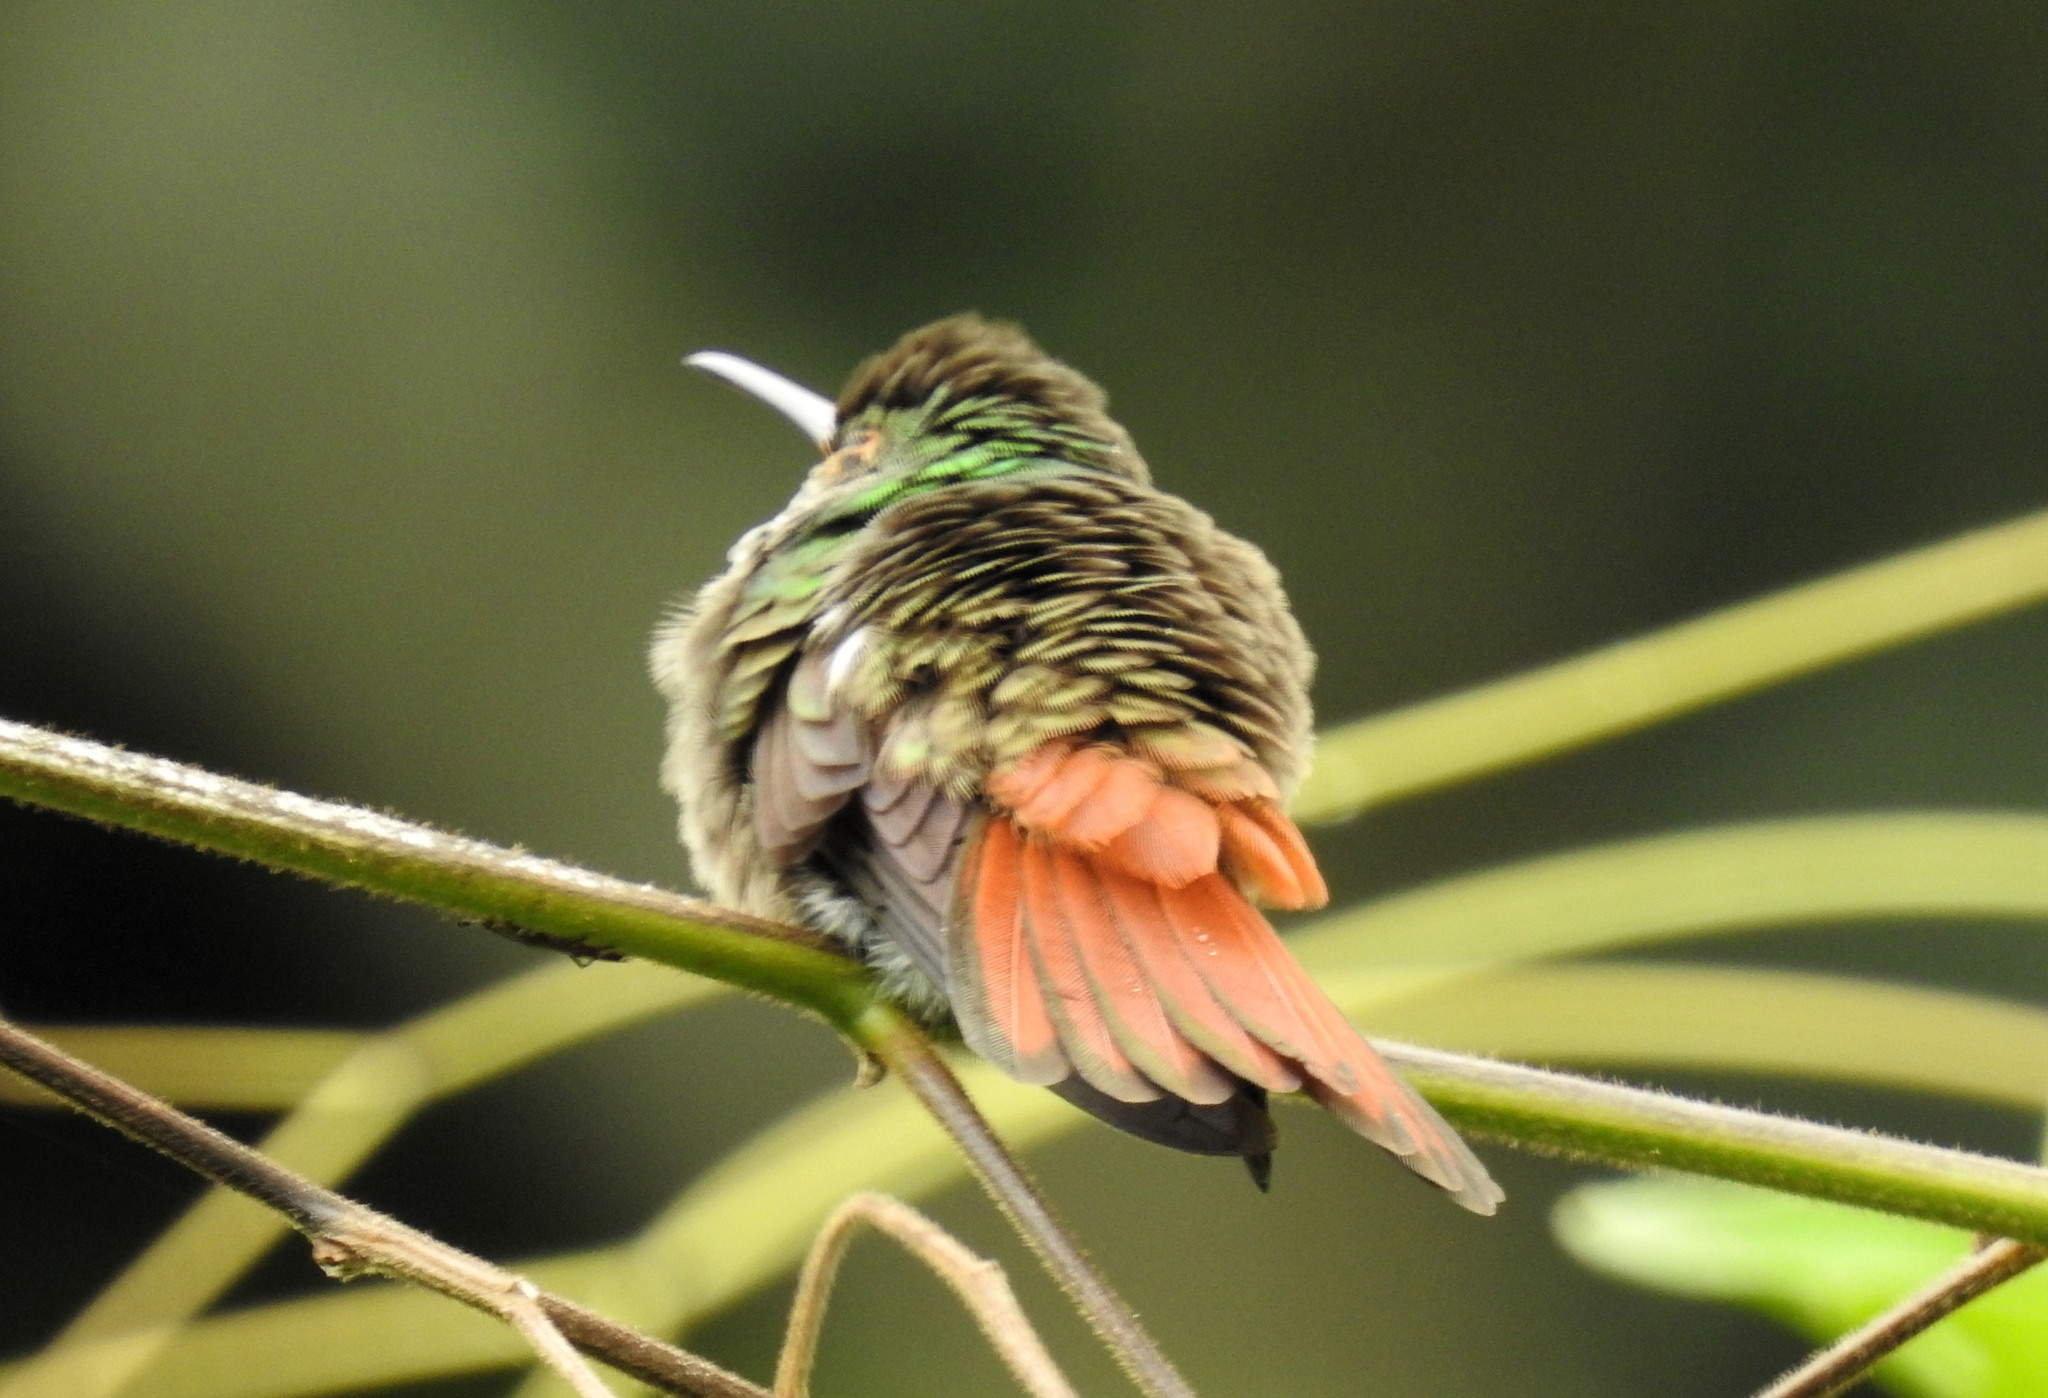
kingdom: Animalia
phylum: Chordata
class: Aves
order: Apodiformes
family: Trochilidae
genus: Amazilia
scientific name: Amazilia tzacatl
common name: Rufous-tailed hummingbird
